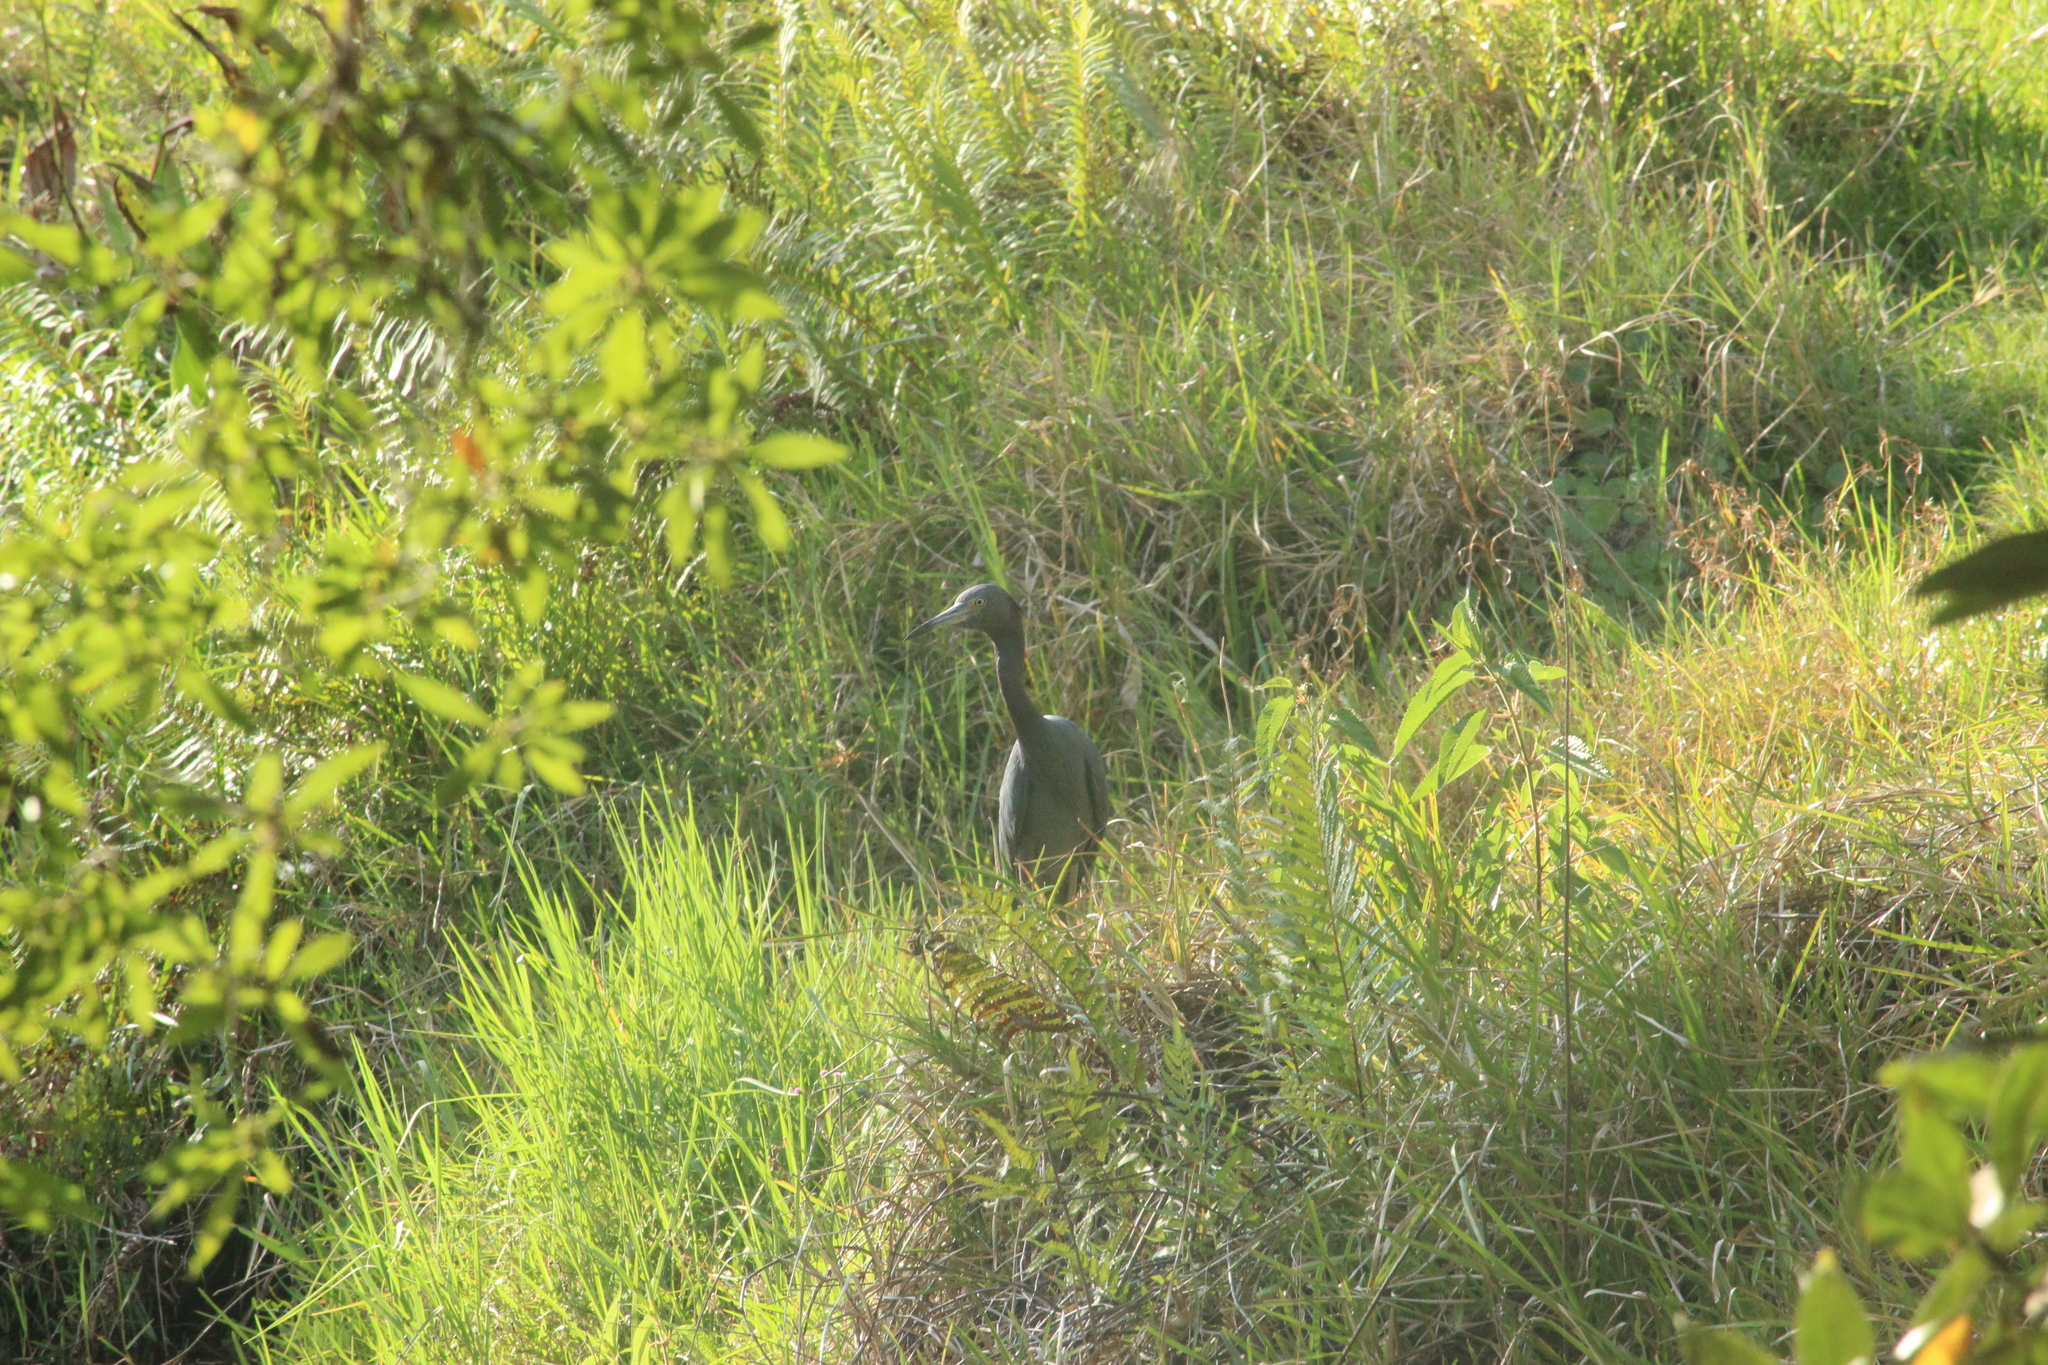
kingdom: Animalia
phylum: Chordata
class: Aves
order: Pelecaniformes
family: Ardeidae
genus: Egretta
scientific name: Egretta caerulea
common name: Little blue heron
